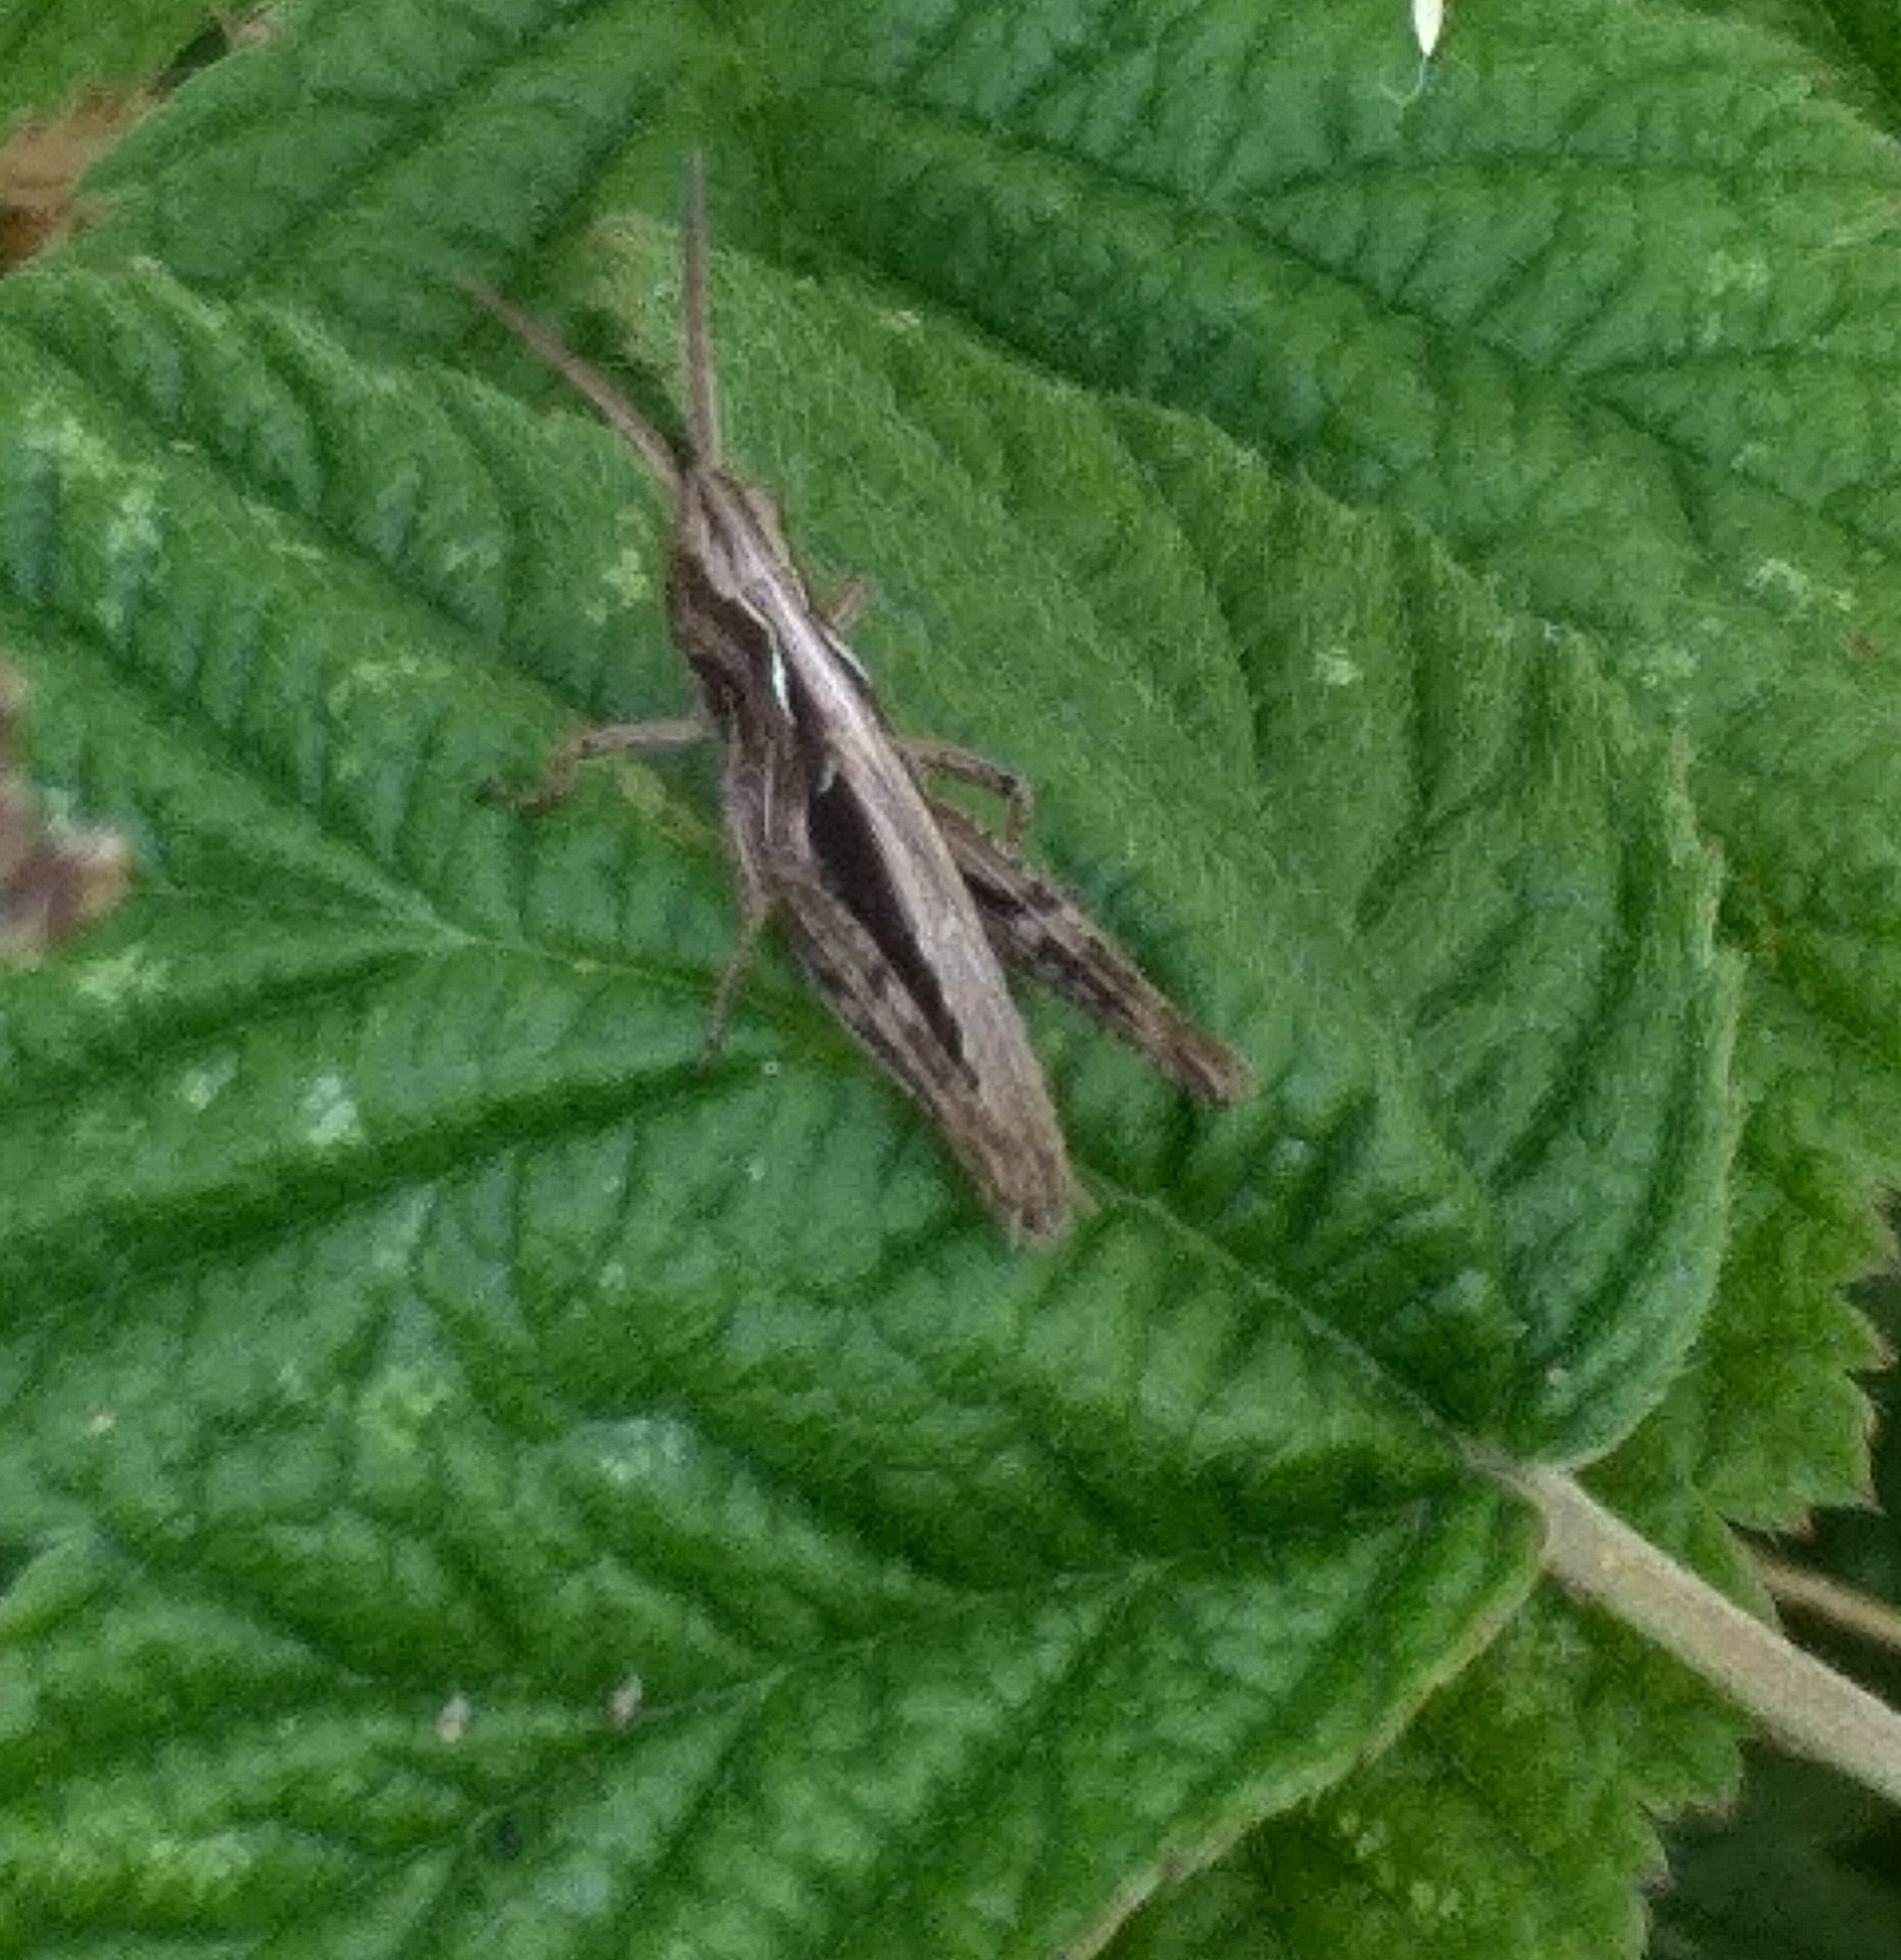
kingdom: Animalia
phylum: Arthropoda
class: Insecta
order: Orthoptera
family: Acrididae
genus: Chorthippus
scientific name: Chorthippus brunneus
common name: Field grasshopper
